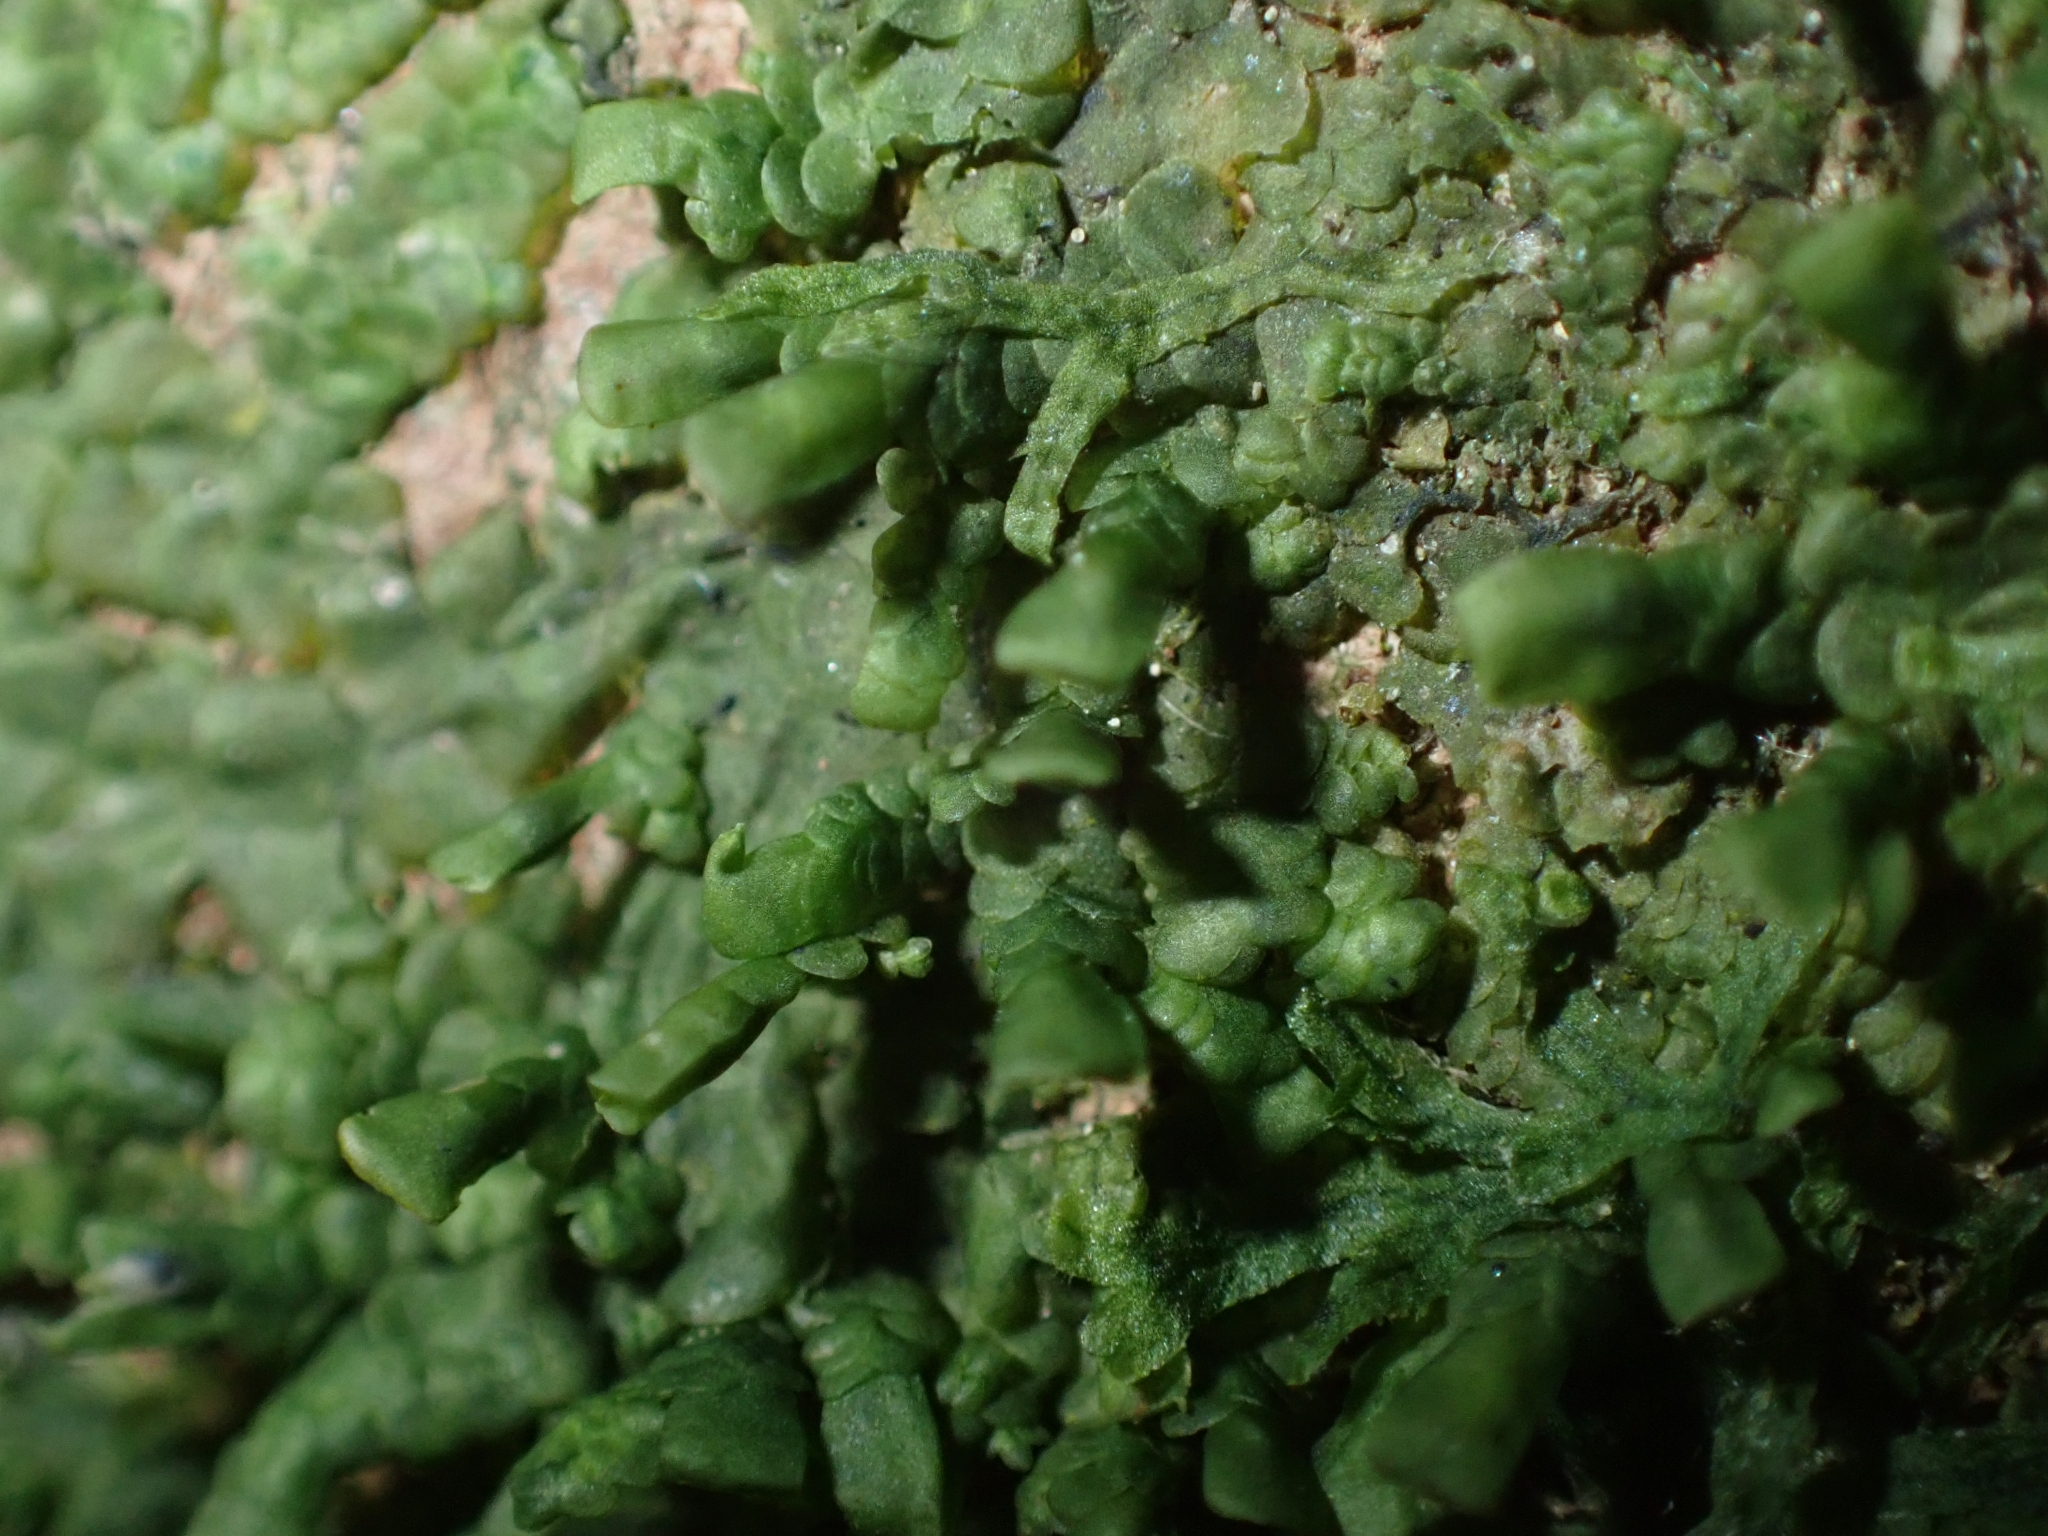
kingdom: Plantae
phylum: Marchantiophyta
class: Jungermanniopsida
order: Porellales
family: Radulaceae
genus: Radula
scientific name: Radula complanata
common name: Flat-leaved scalewort
